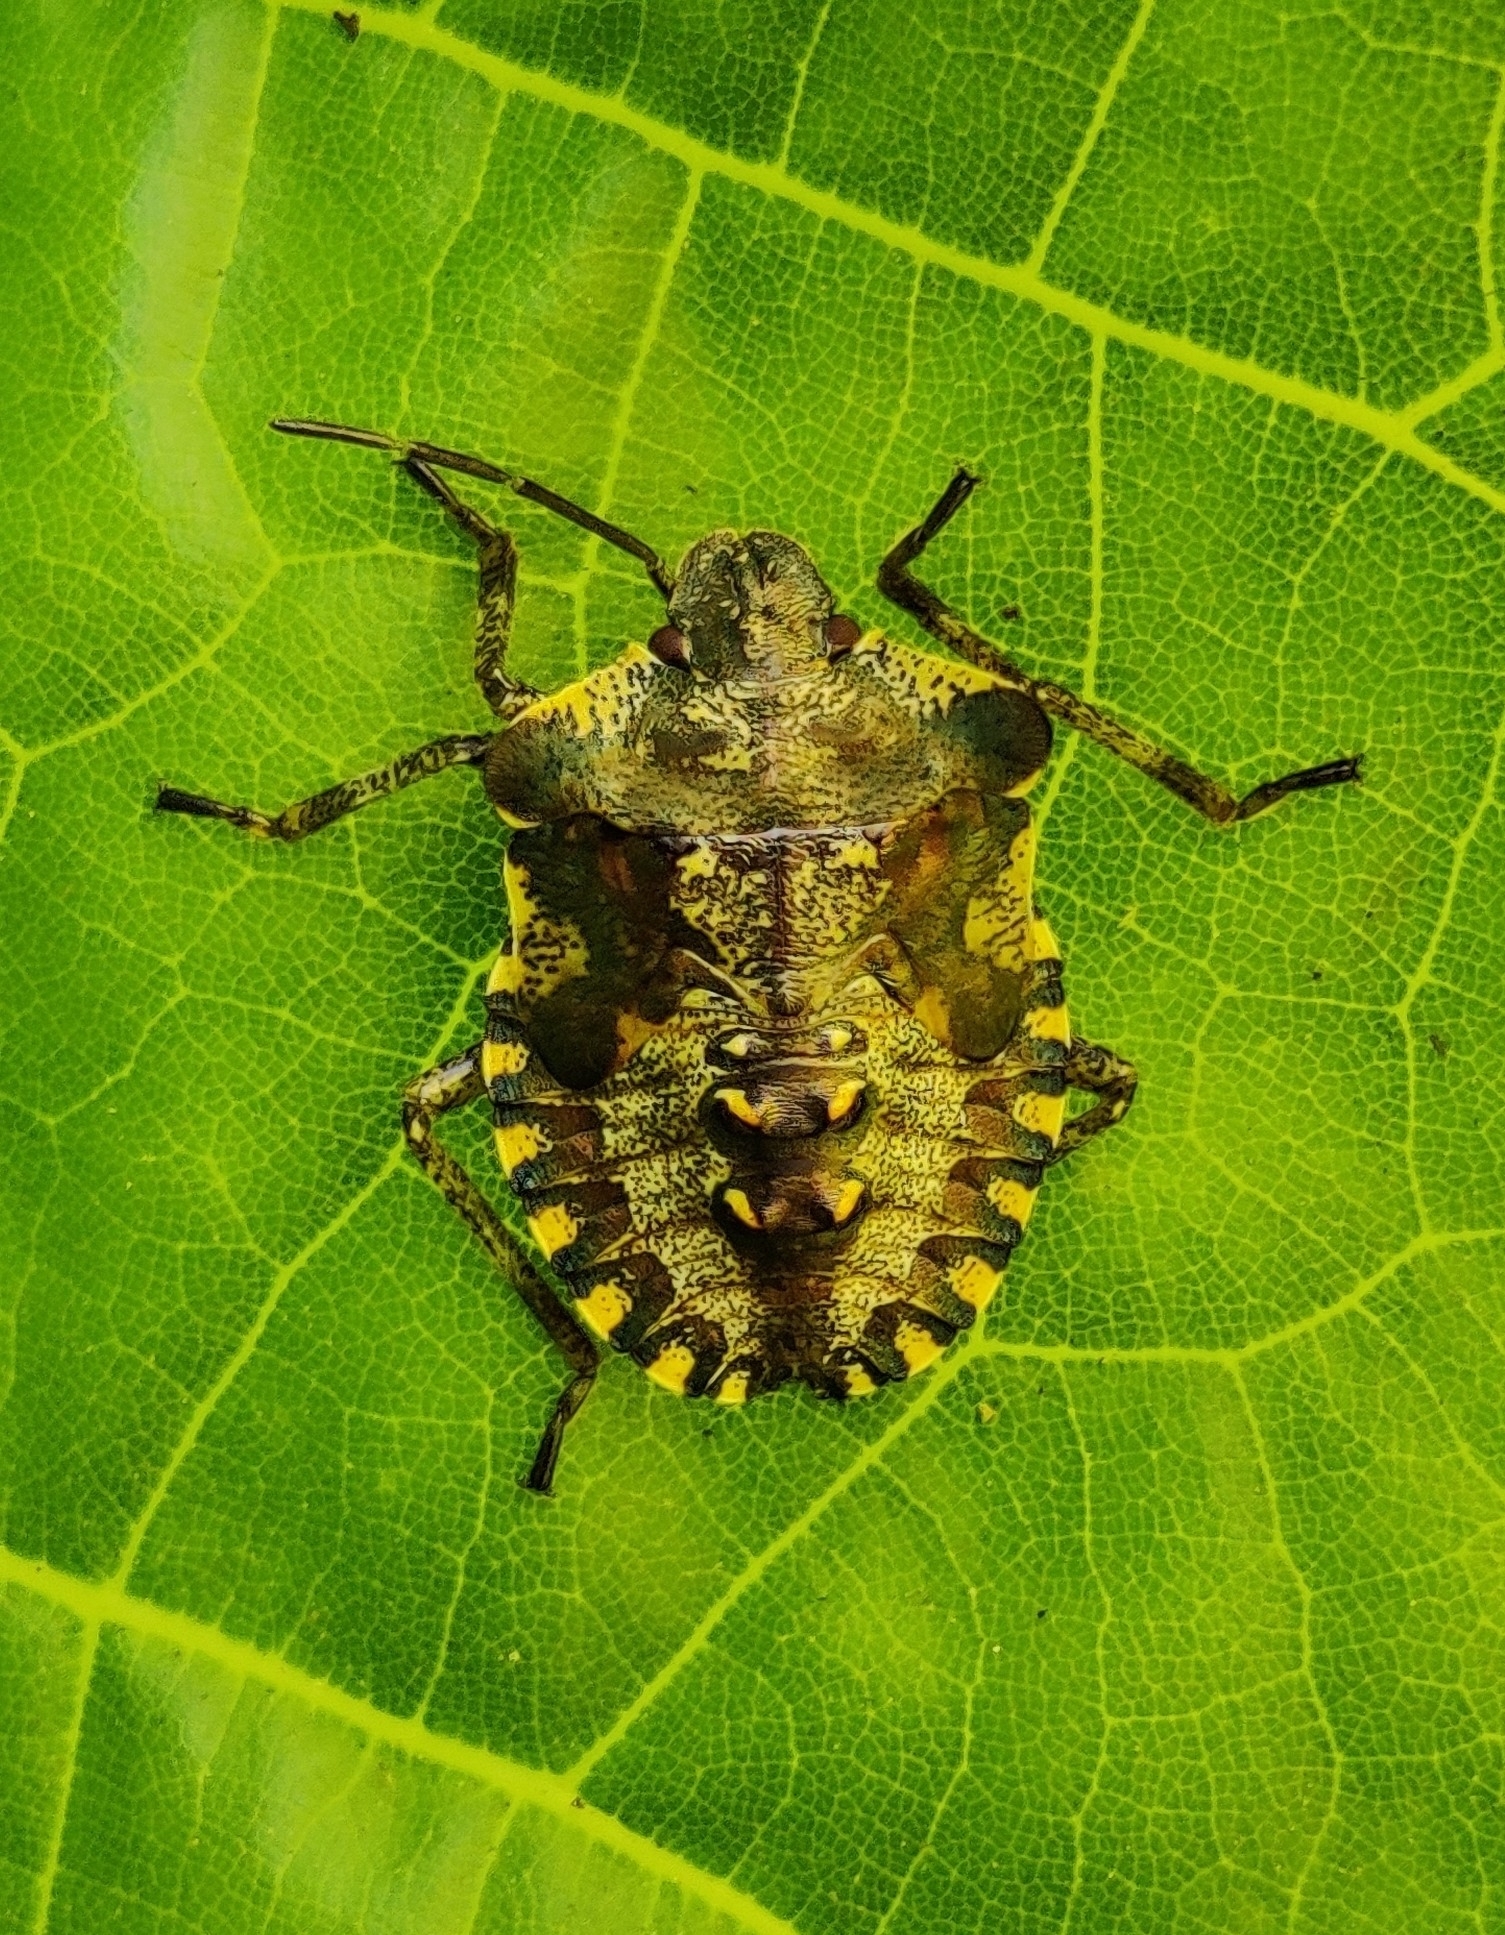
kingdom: Animalia
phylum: Arthropoda
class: Insecta
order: Hemiptera
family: Pentatomidae
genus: Pentatoma
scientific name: Pentatoma rufipes
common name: Forest bug
